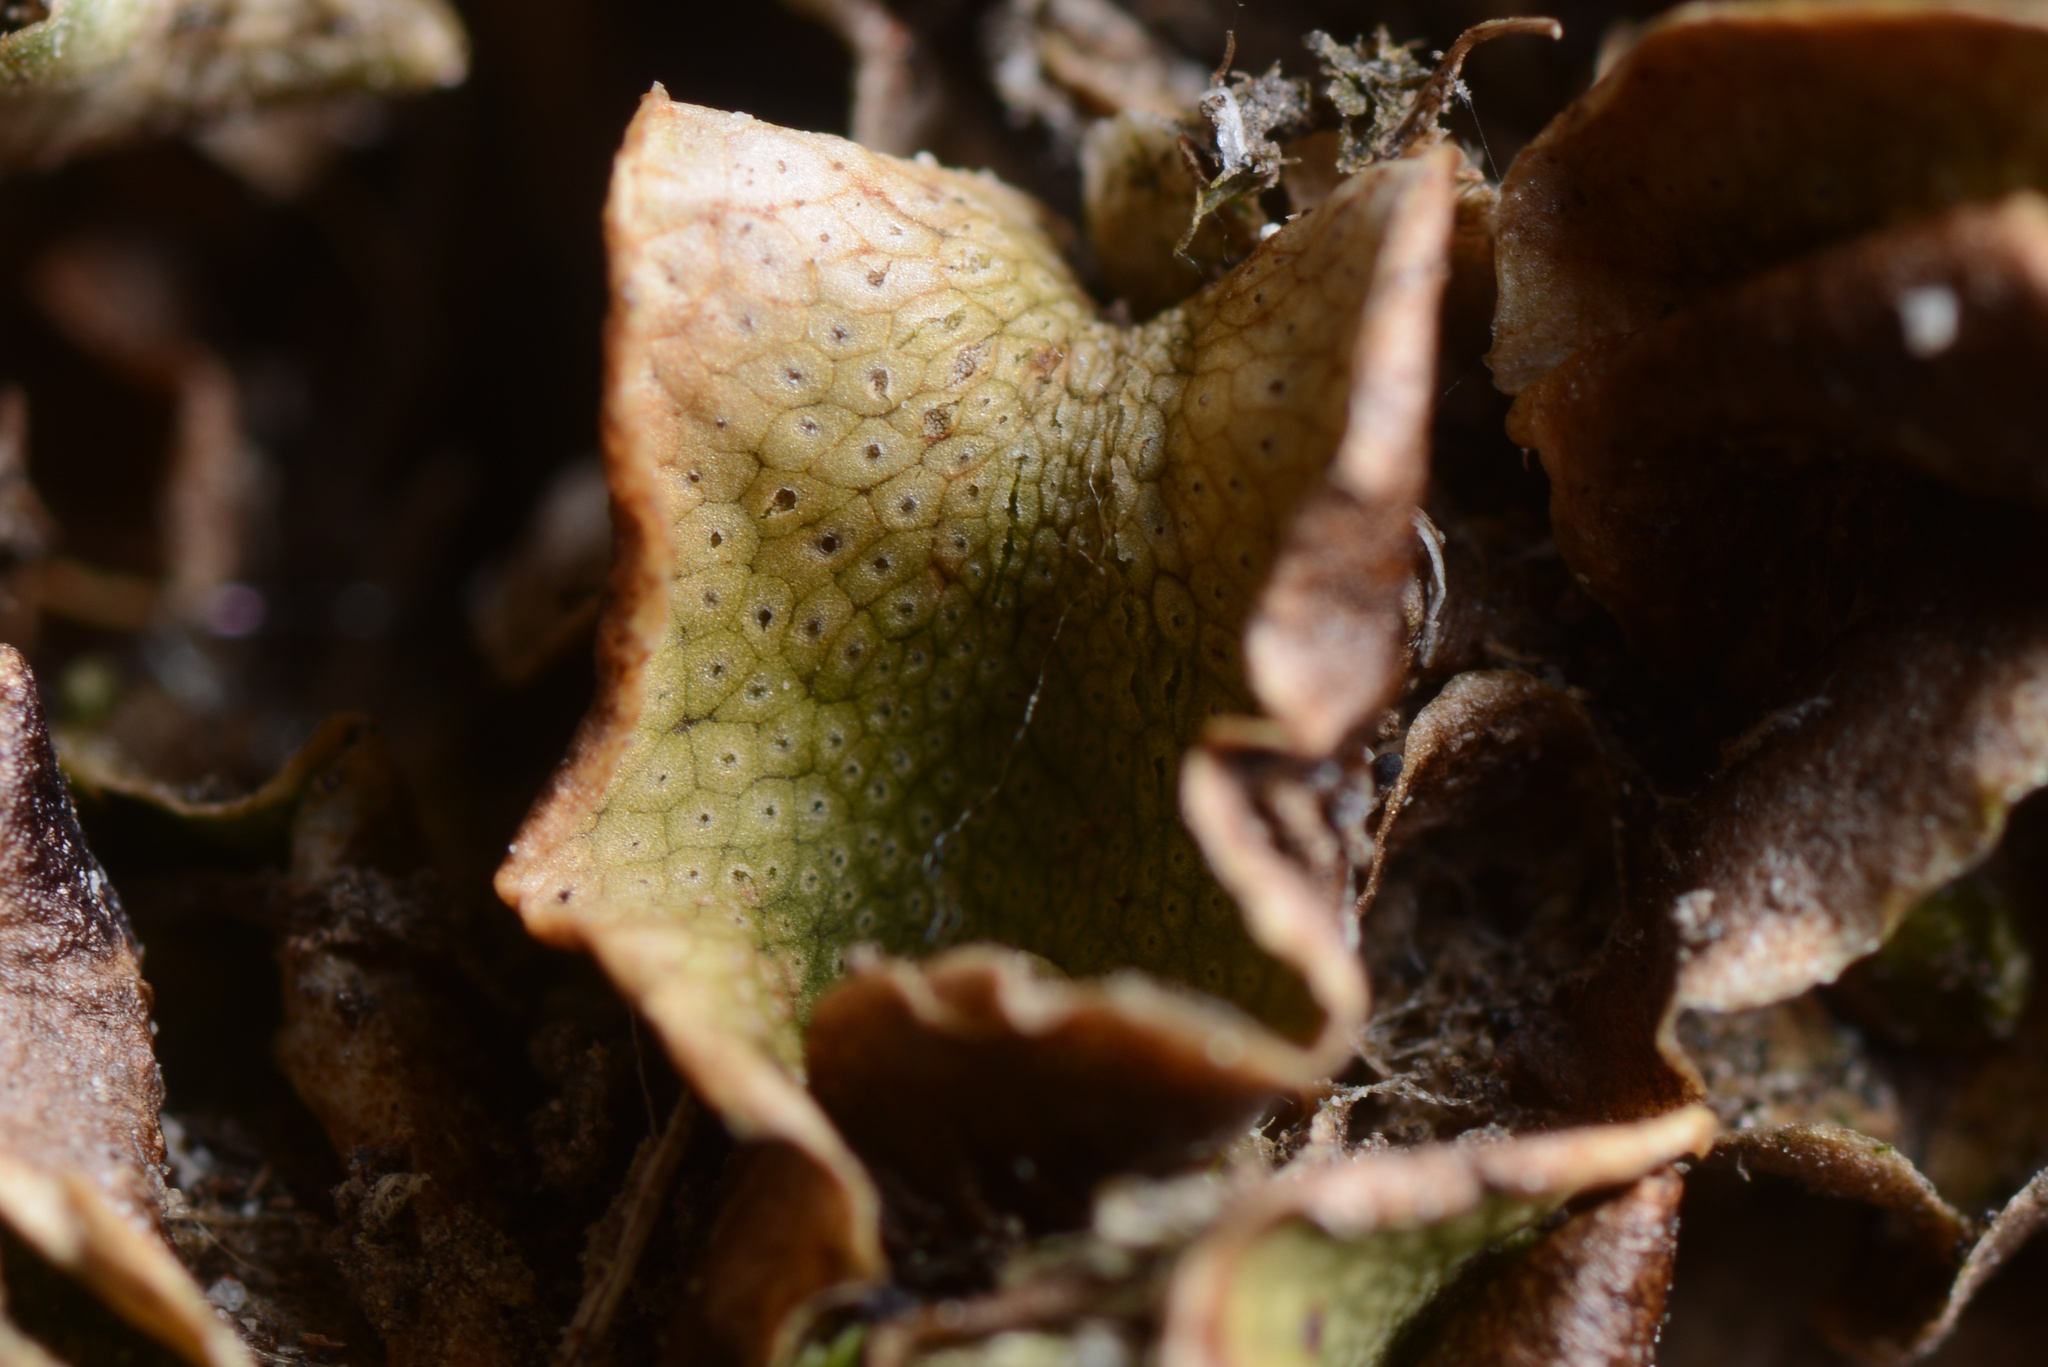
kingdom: Plantae
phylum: Marchantiophyta
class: Marchantiopsida
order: Lunulariales
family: Lunulariaceae
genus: Lunularia
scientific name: Lunularia cruciata
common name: Crescent-cup liverwort
